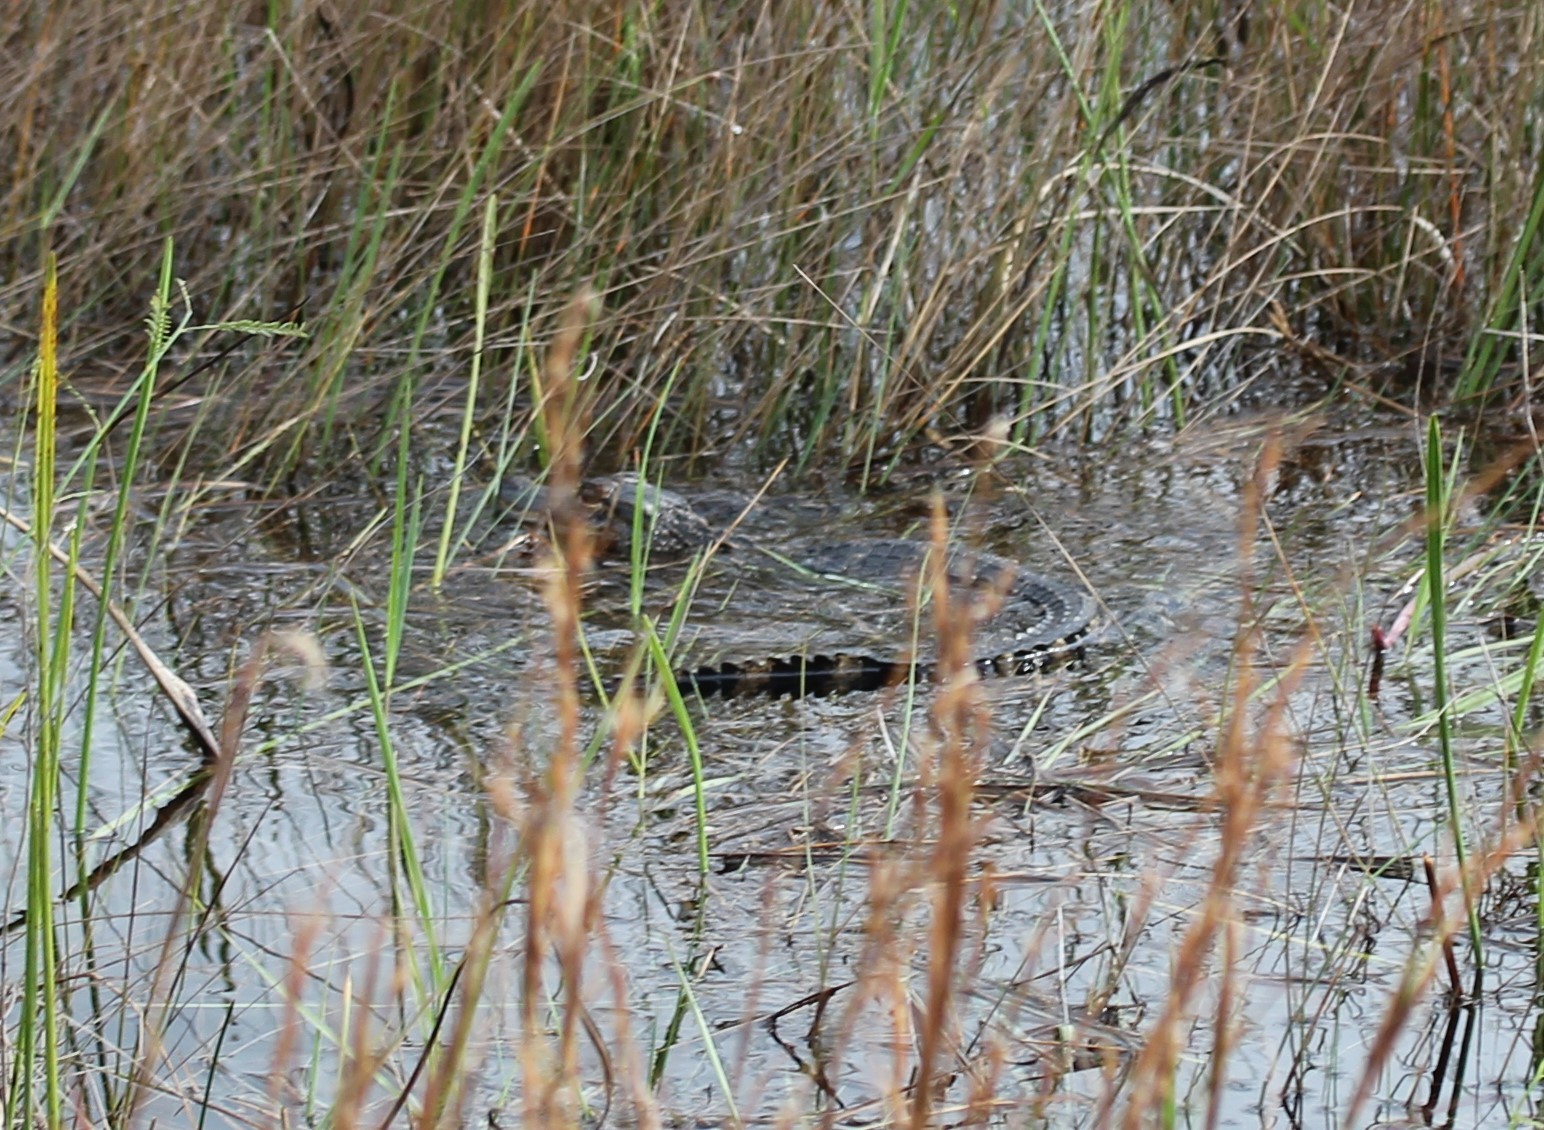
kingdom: Animalia
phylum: Chordata
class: Crocodylia
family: Alligatoridae
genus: Alligator
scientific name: Alligator mississippiensis
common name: American alligator
